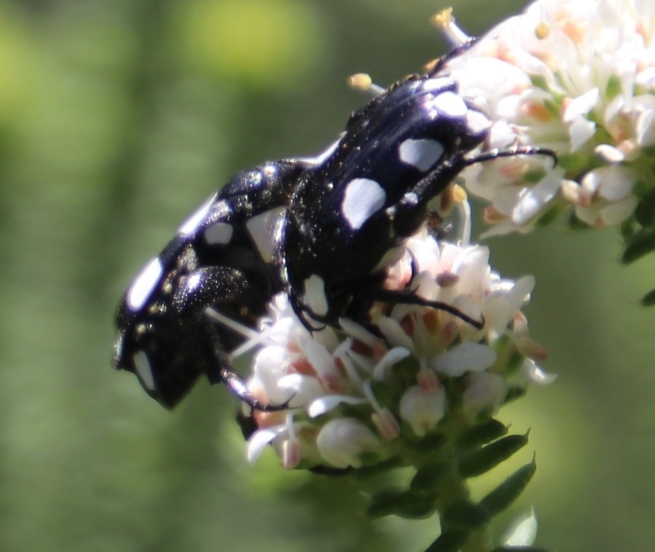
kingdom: Animalia
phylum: Arthropoda
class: Insecta
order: Coleoptera
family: Scarabaeidae
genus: Mausoleopsis
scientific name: Mausoleopsis amabilis
